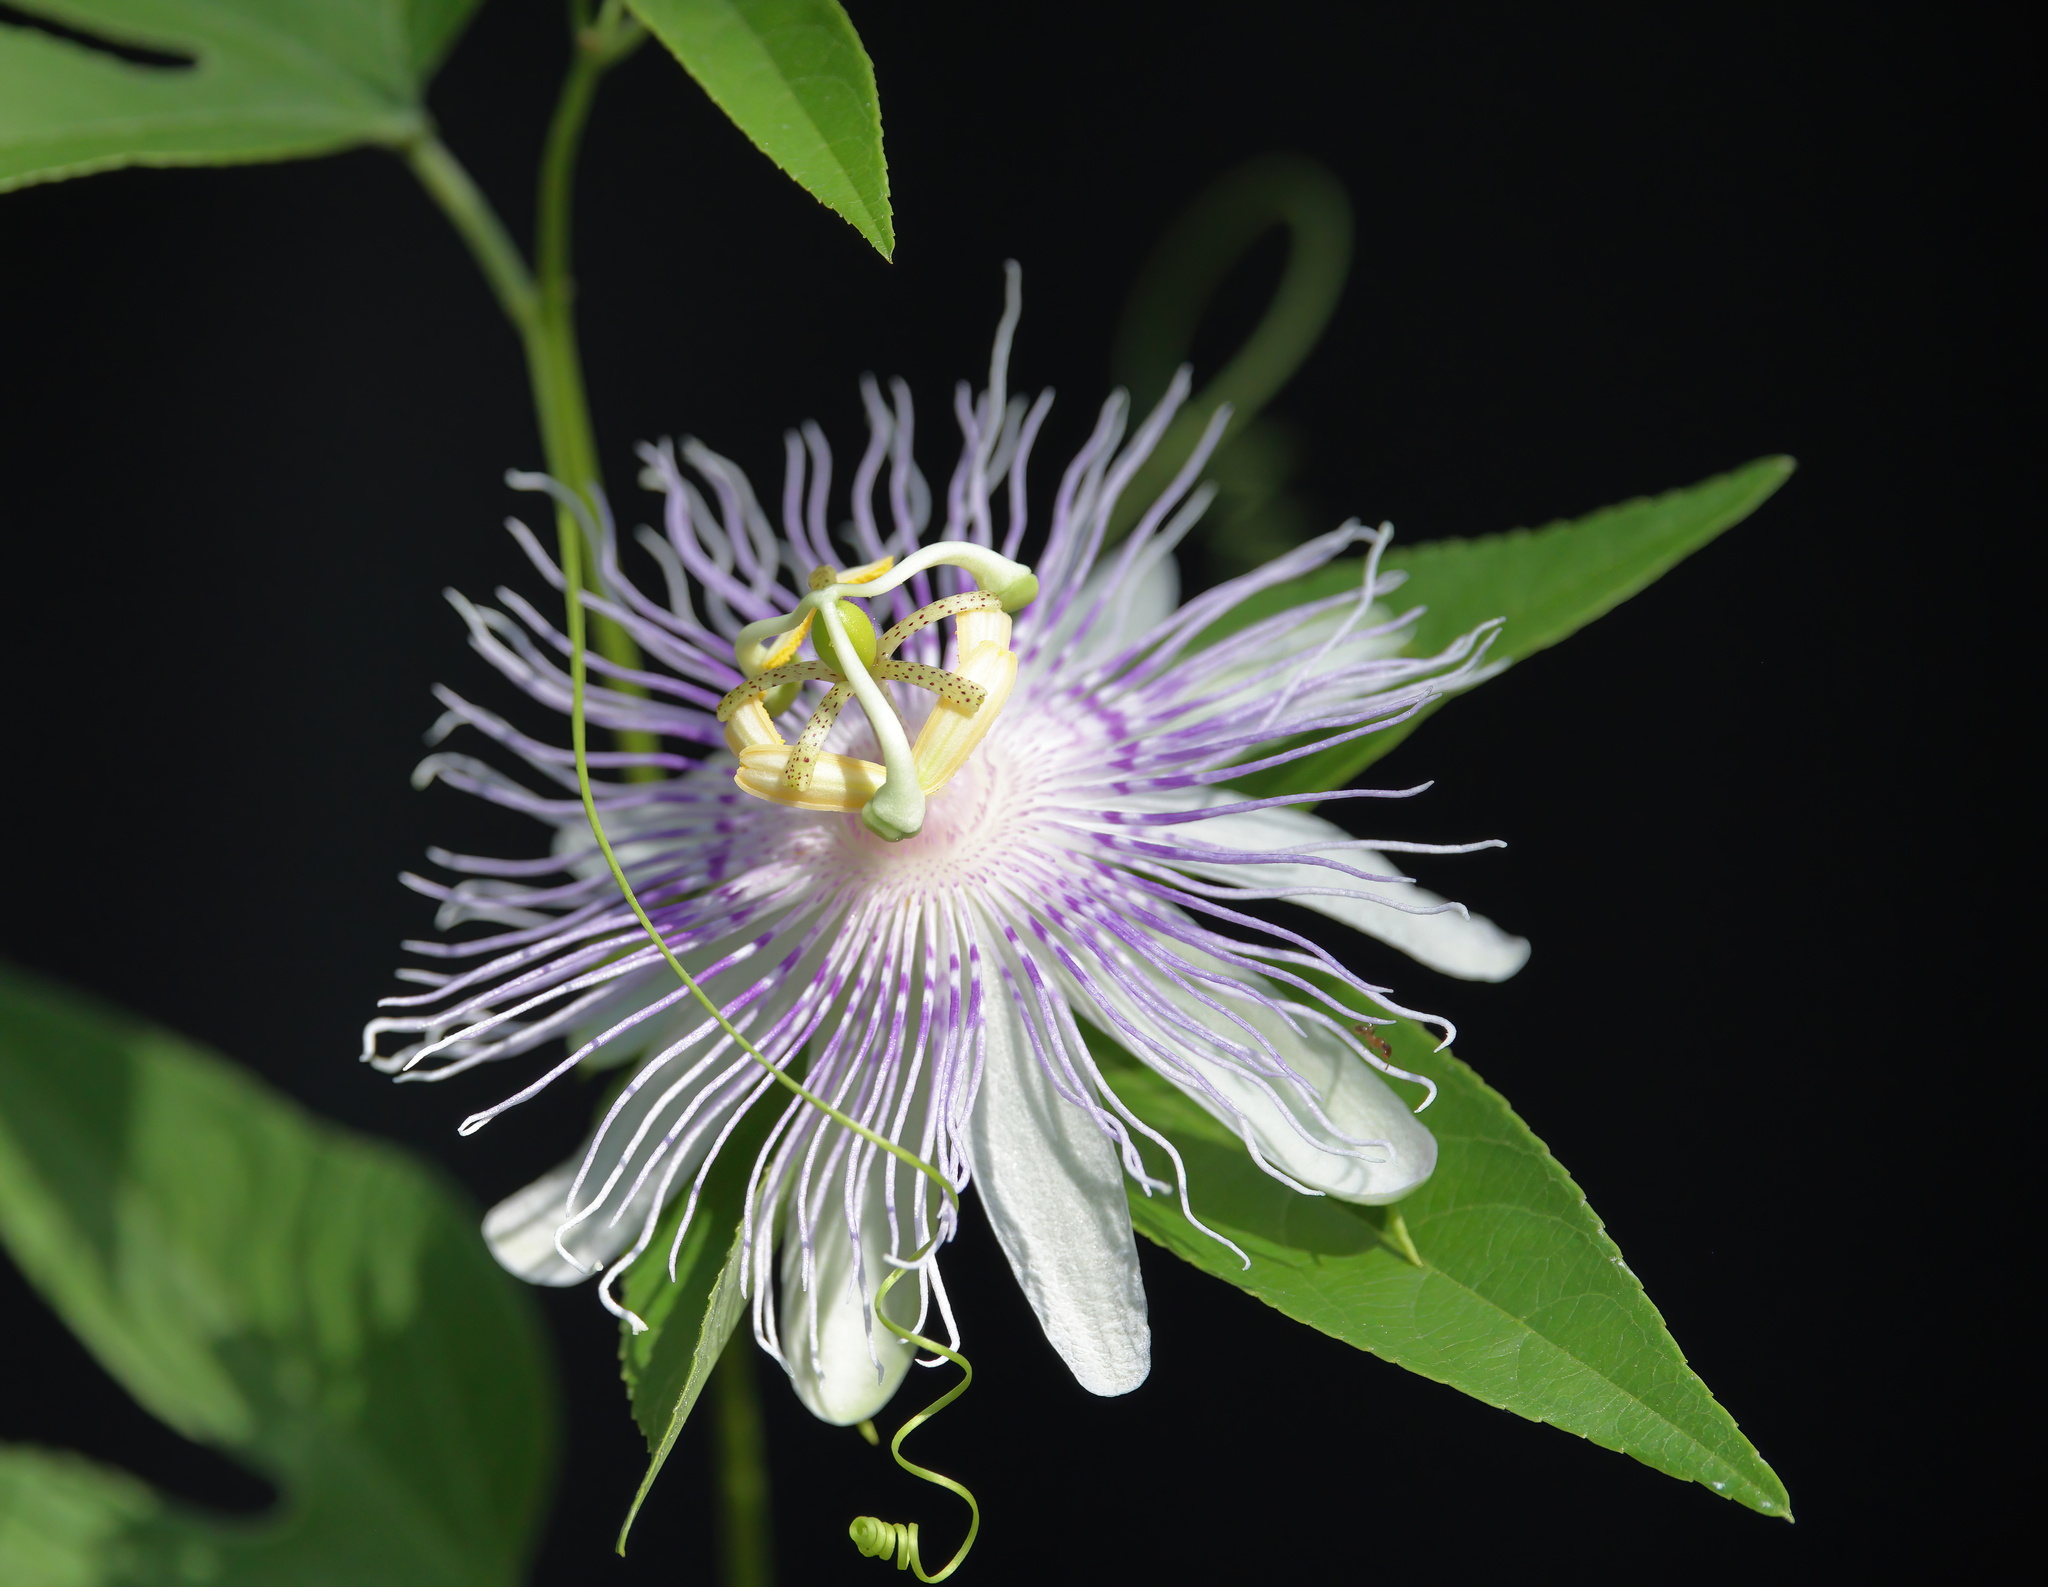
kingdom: Plantae
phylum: Tracheophyta
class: Magnoliopsida
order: Malpighiales
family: Passifloraceae
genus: Passiflora
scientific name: Passiflora incarnata
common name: Apricot-vine
